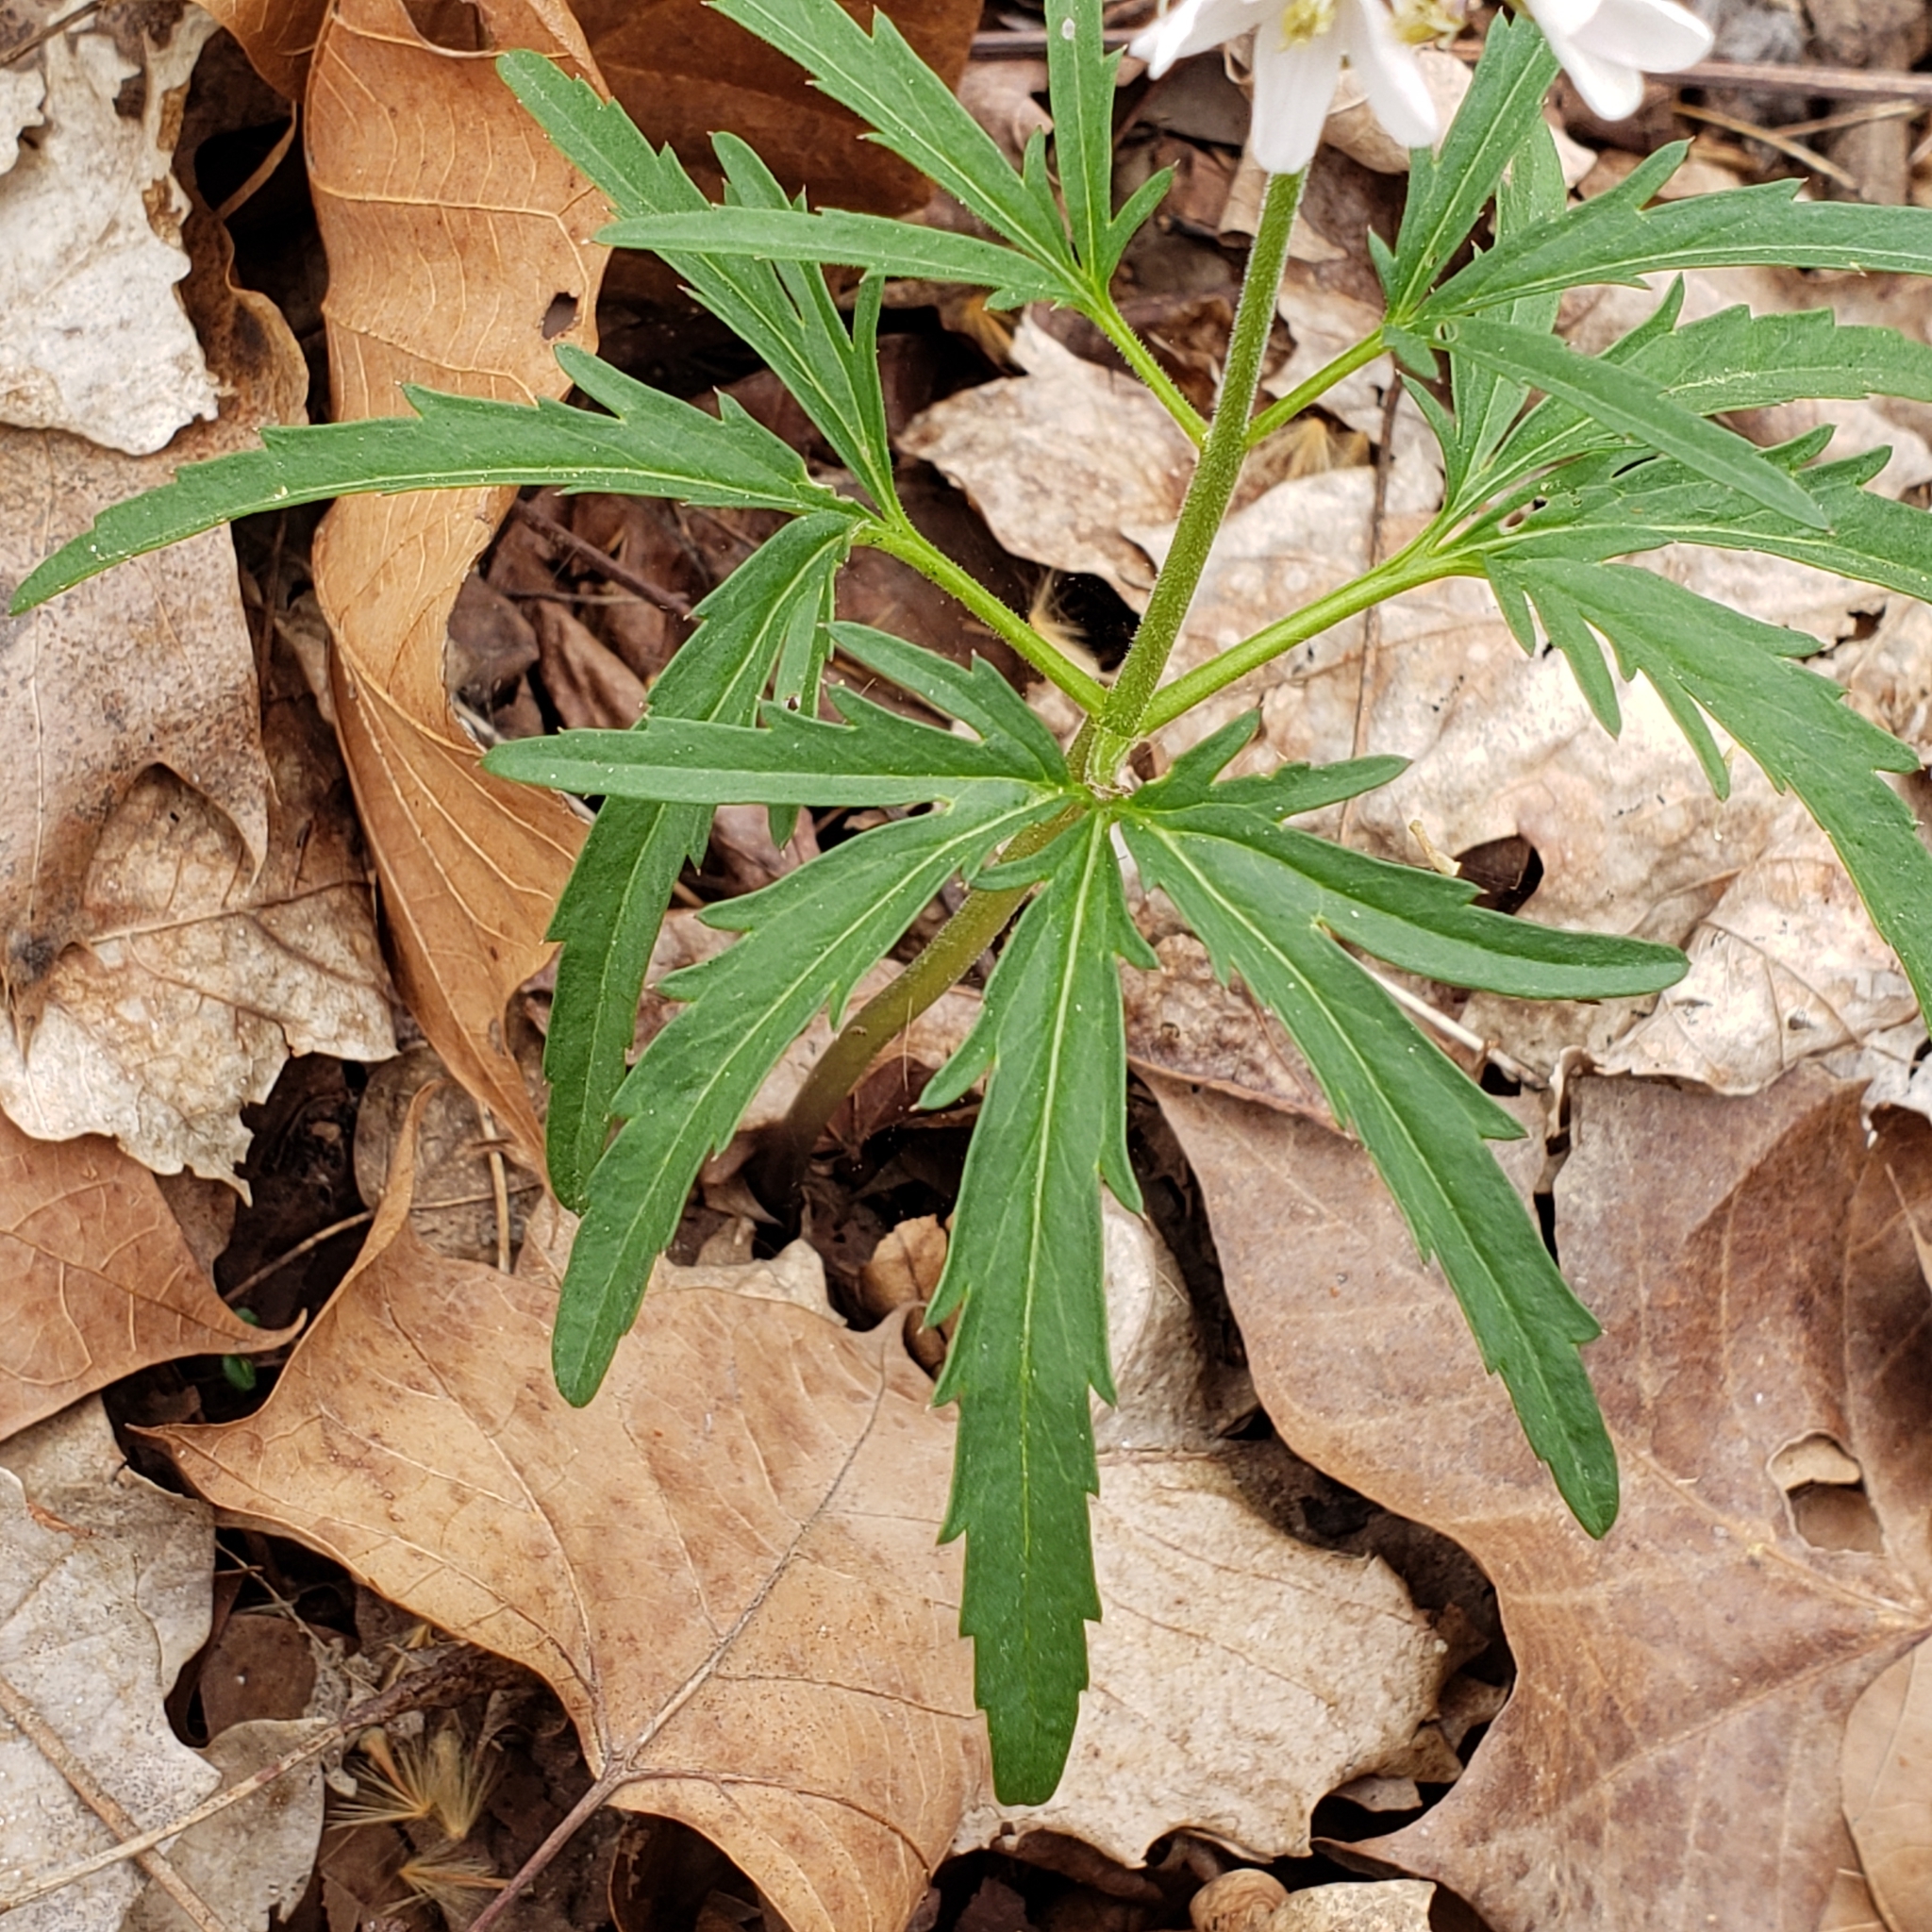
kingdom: Plantae
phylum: Tracheophyta
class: Magnoliopsida
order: Brassicales
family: Brassicaceae
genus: Cardamine
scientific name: Cardamine concatenata
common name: Cut-leaf toothcup
